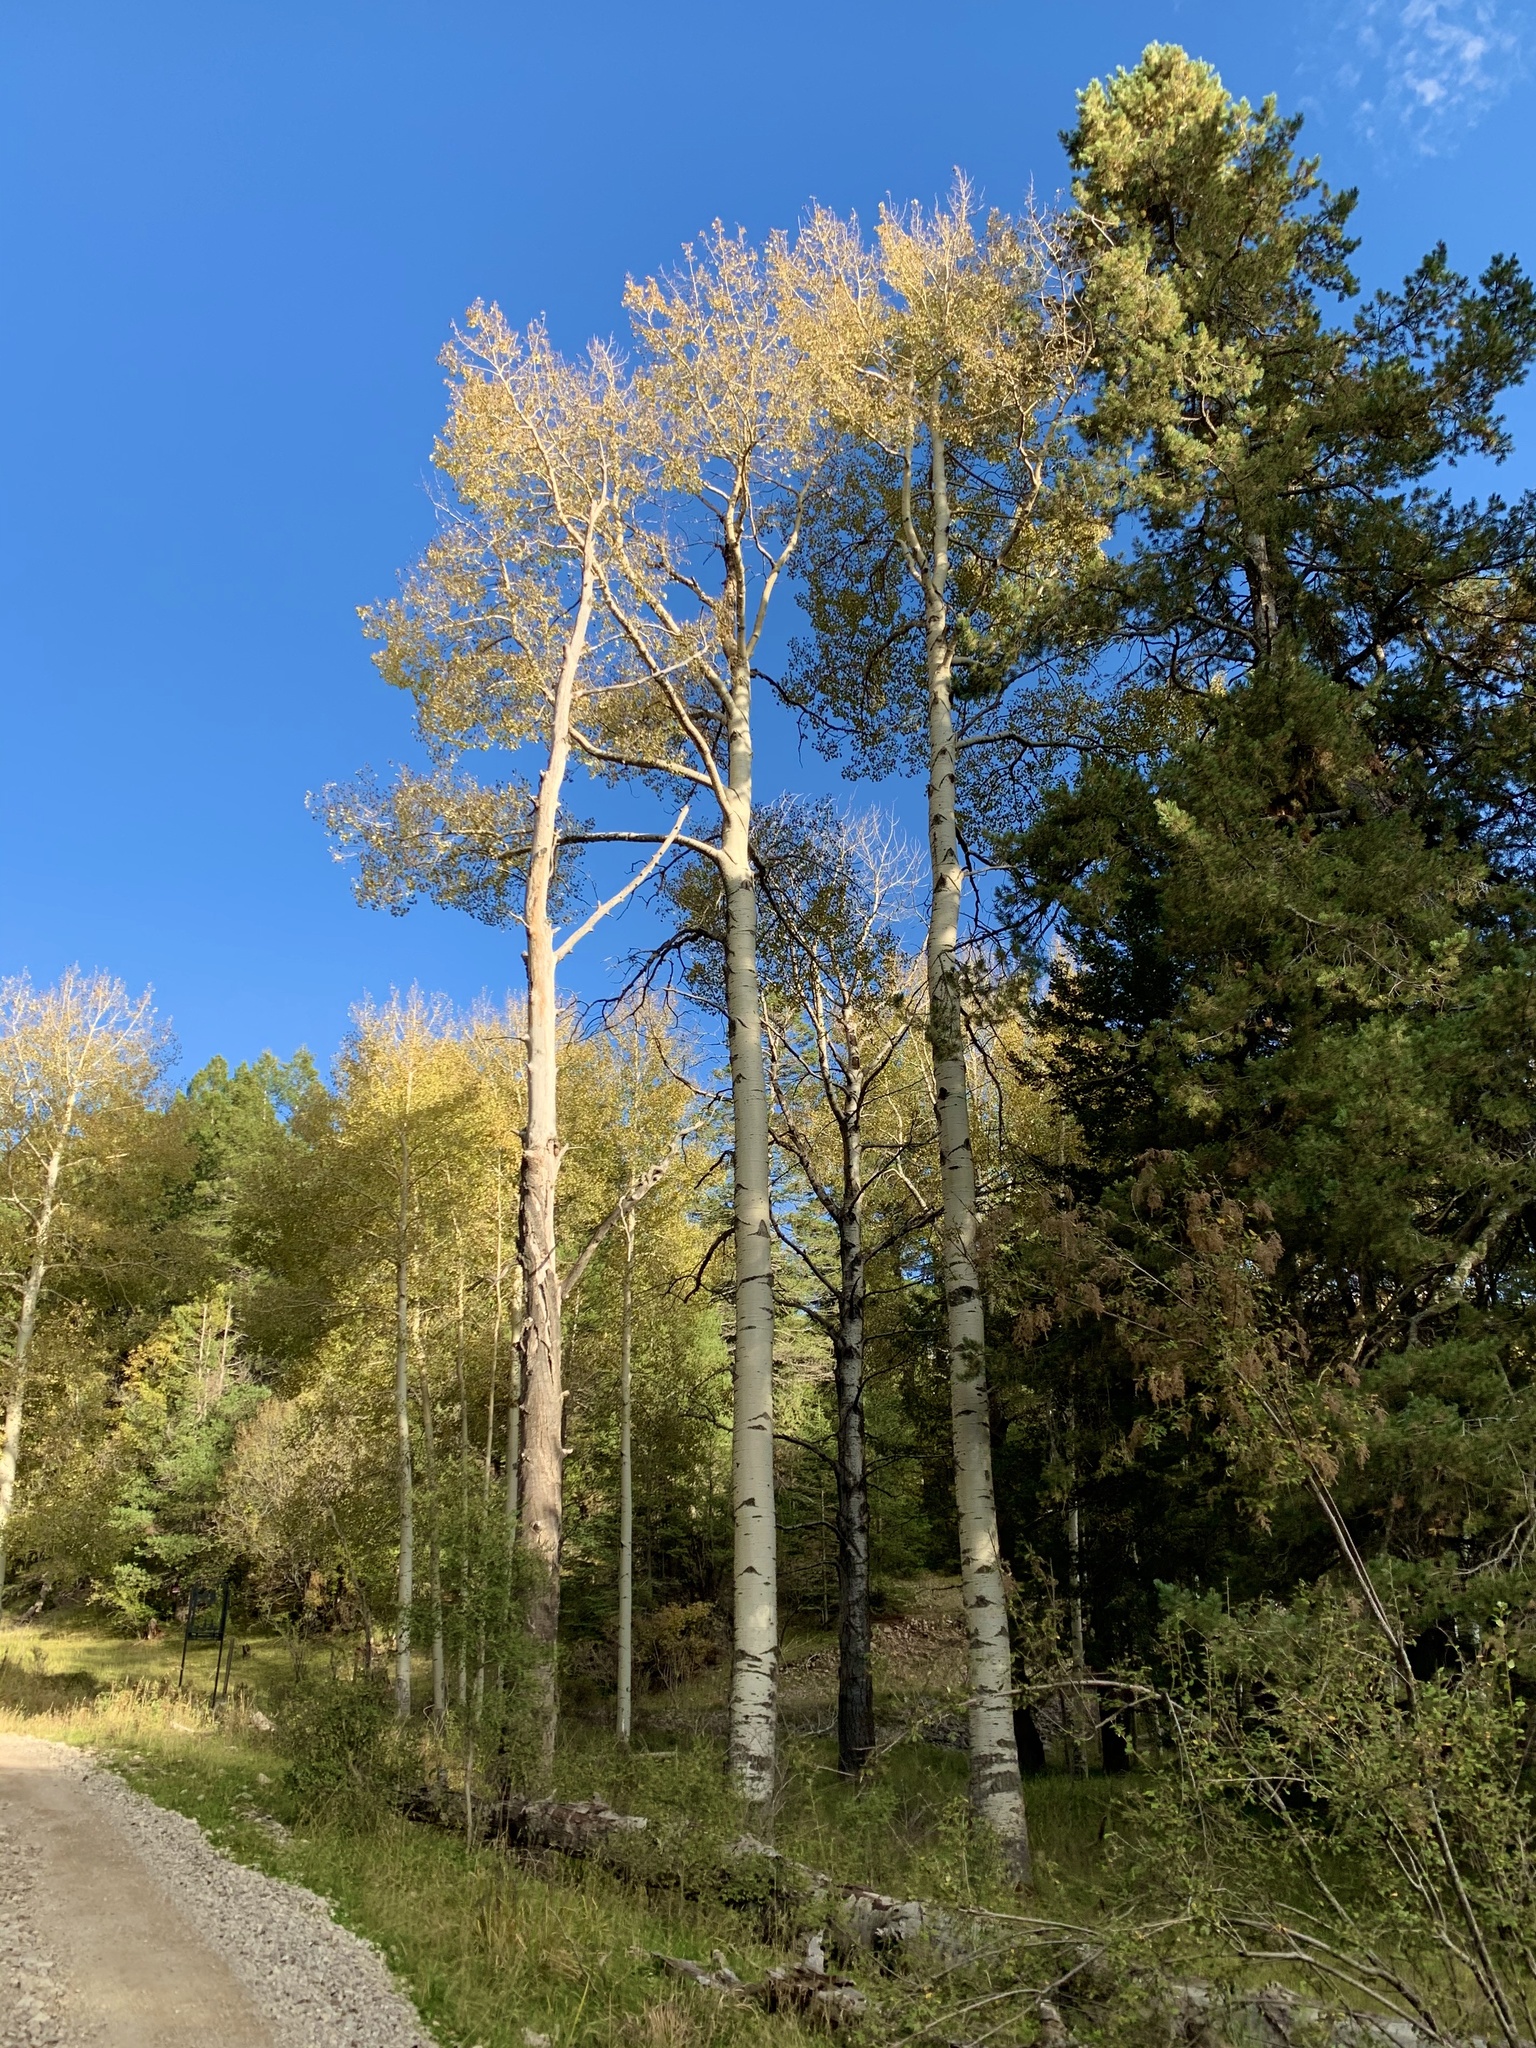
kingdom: Plantae
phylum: Tracheophyta
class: Magnoliopsida
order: Malpighiales
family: Salicaceae
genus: Populus
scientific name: Populus tremuloides
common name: Quaking aspen
